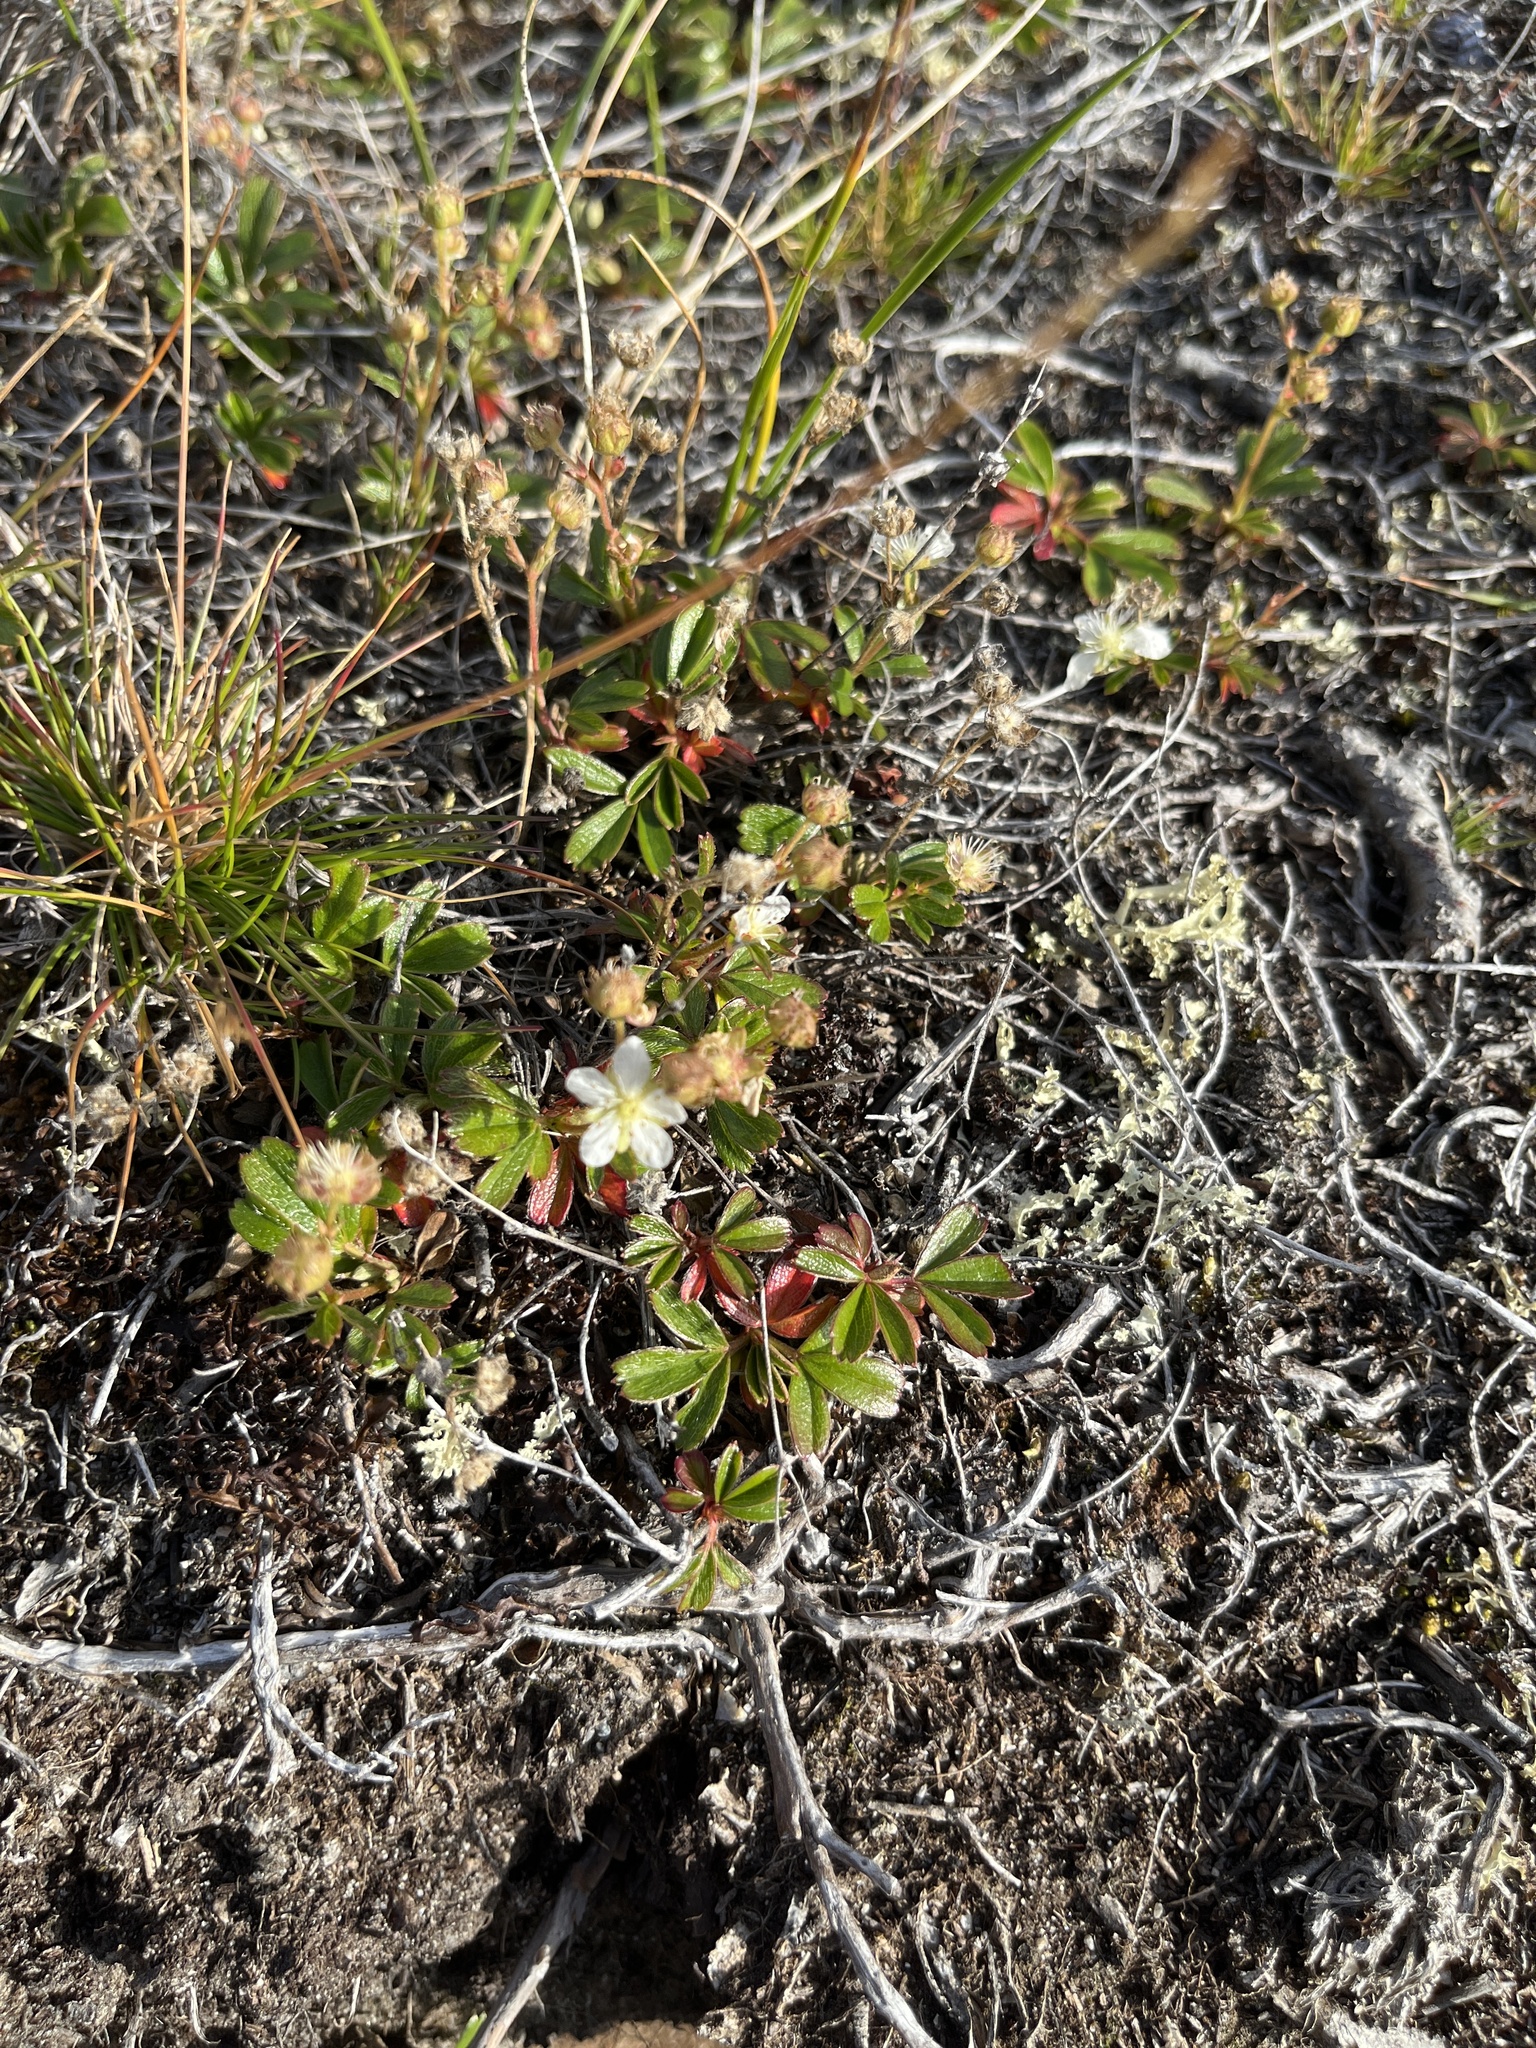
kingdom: Plantae
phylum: Tracheophyta
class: Magnoliopsida
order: Rosales
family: Rosaceae
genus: Sibbaldia
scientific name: Sibbaldia tridentata
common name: Three-toothed cinquefoil
